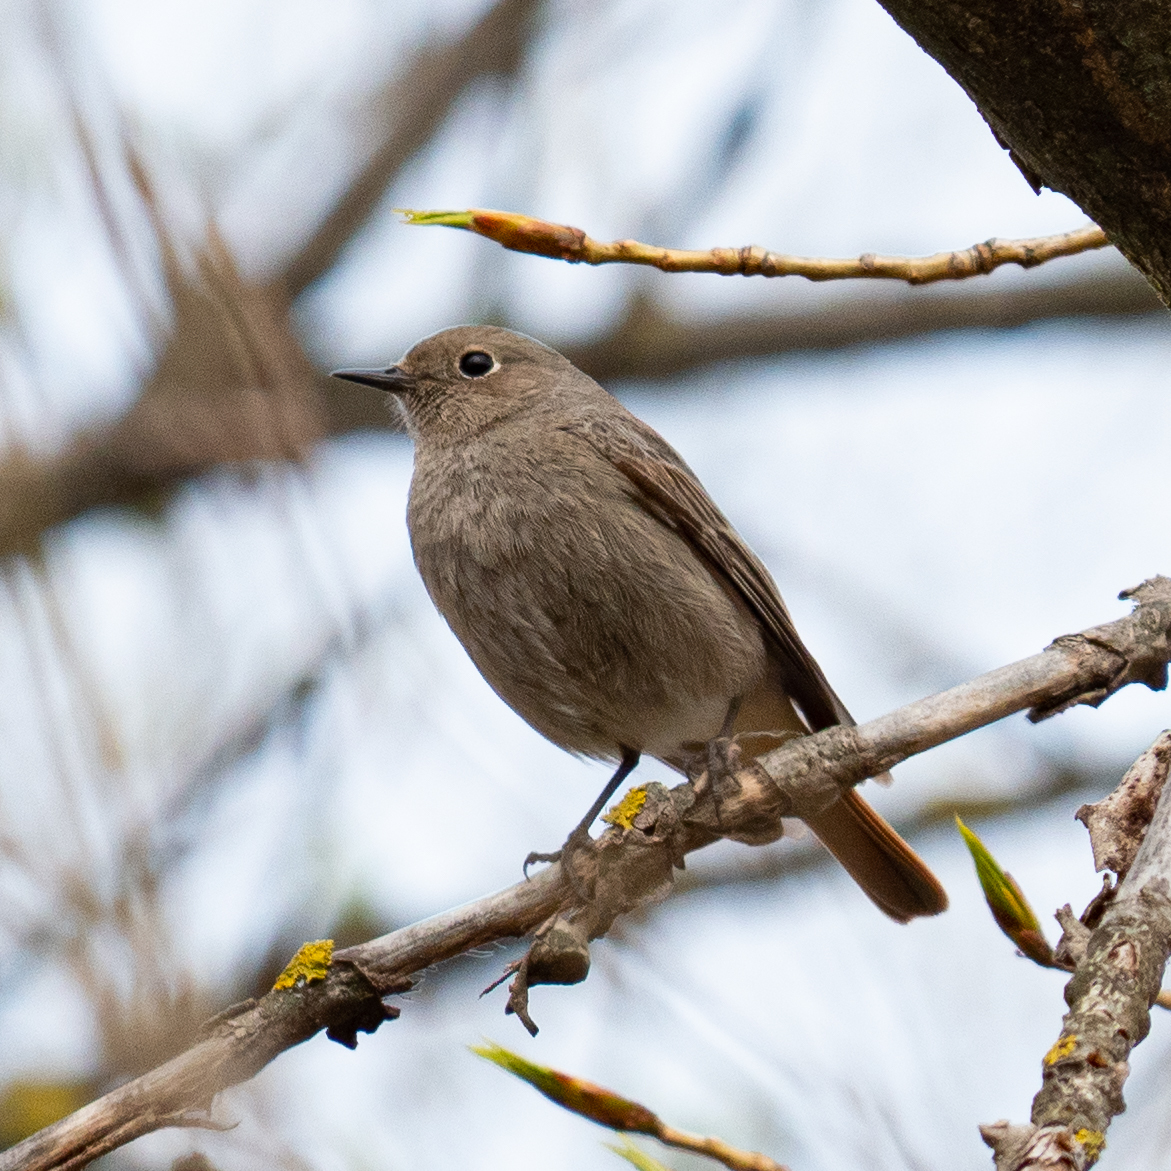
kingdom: Animalia
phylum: Chordata
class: Aves
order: Passeriformes
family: Muscicapidae
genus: Phoenicurus
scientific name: Phoenicurus ochruros
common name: Black redstart
